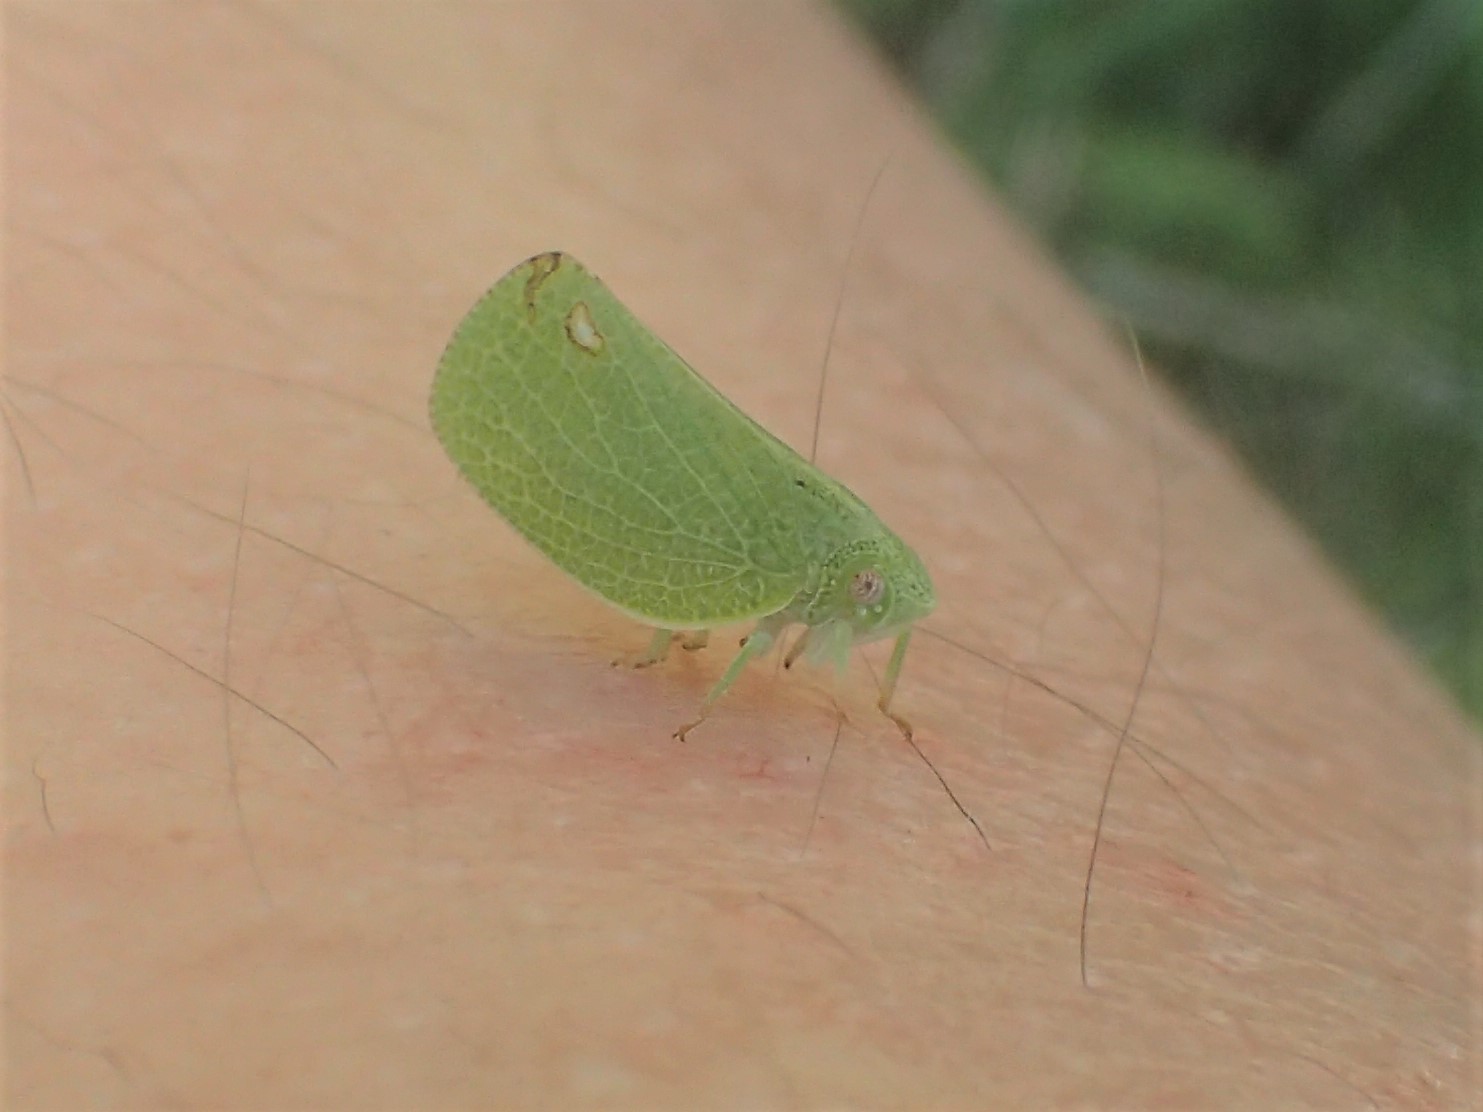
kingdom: Animalia
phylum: Arthropoda
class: Insecta
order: Hemiptera
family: Acanaloniidae
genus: Acanalonia
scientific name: Acanalonia conica
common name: Green cone-headed planthopper
